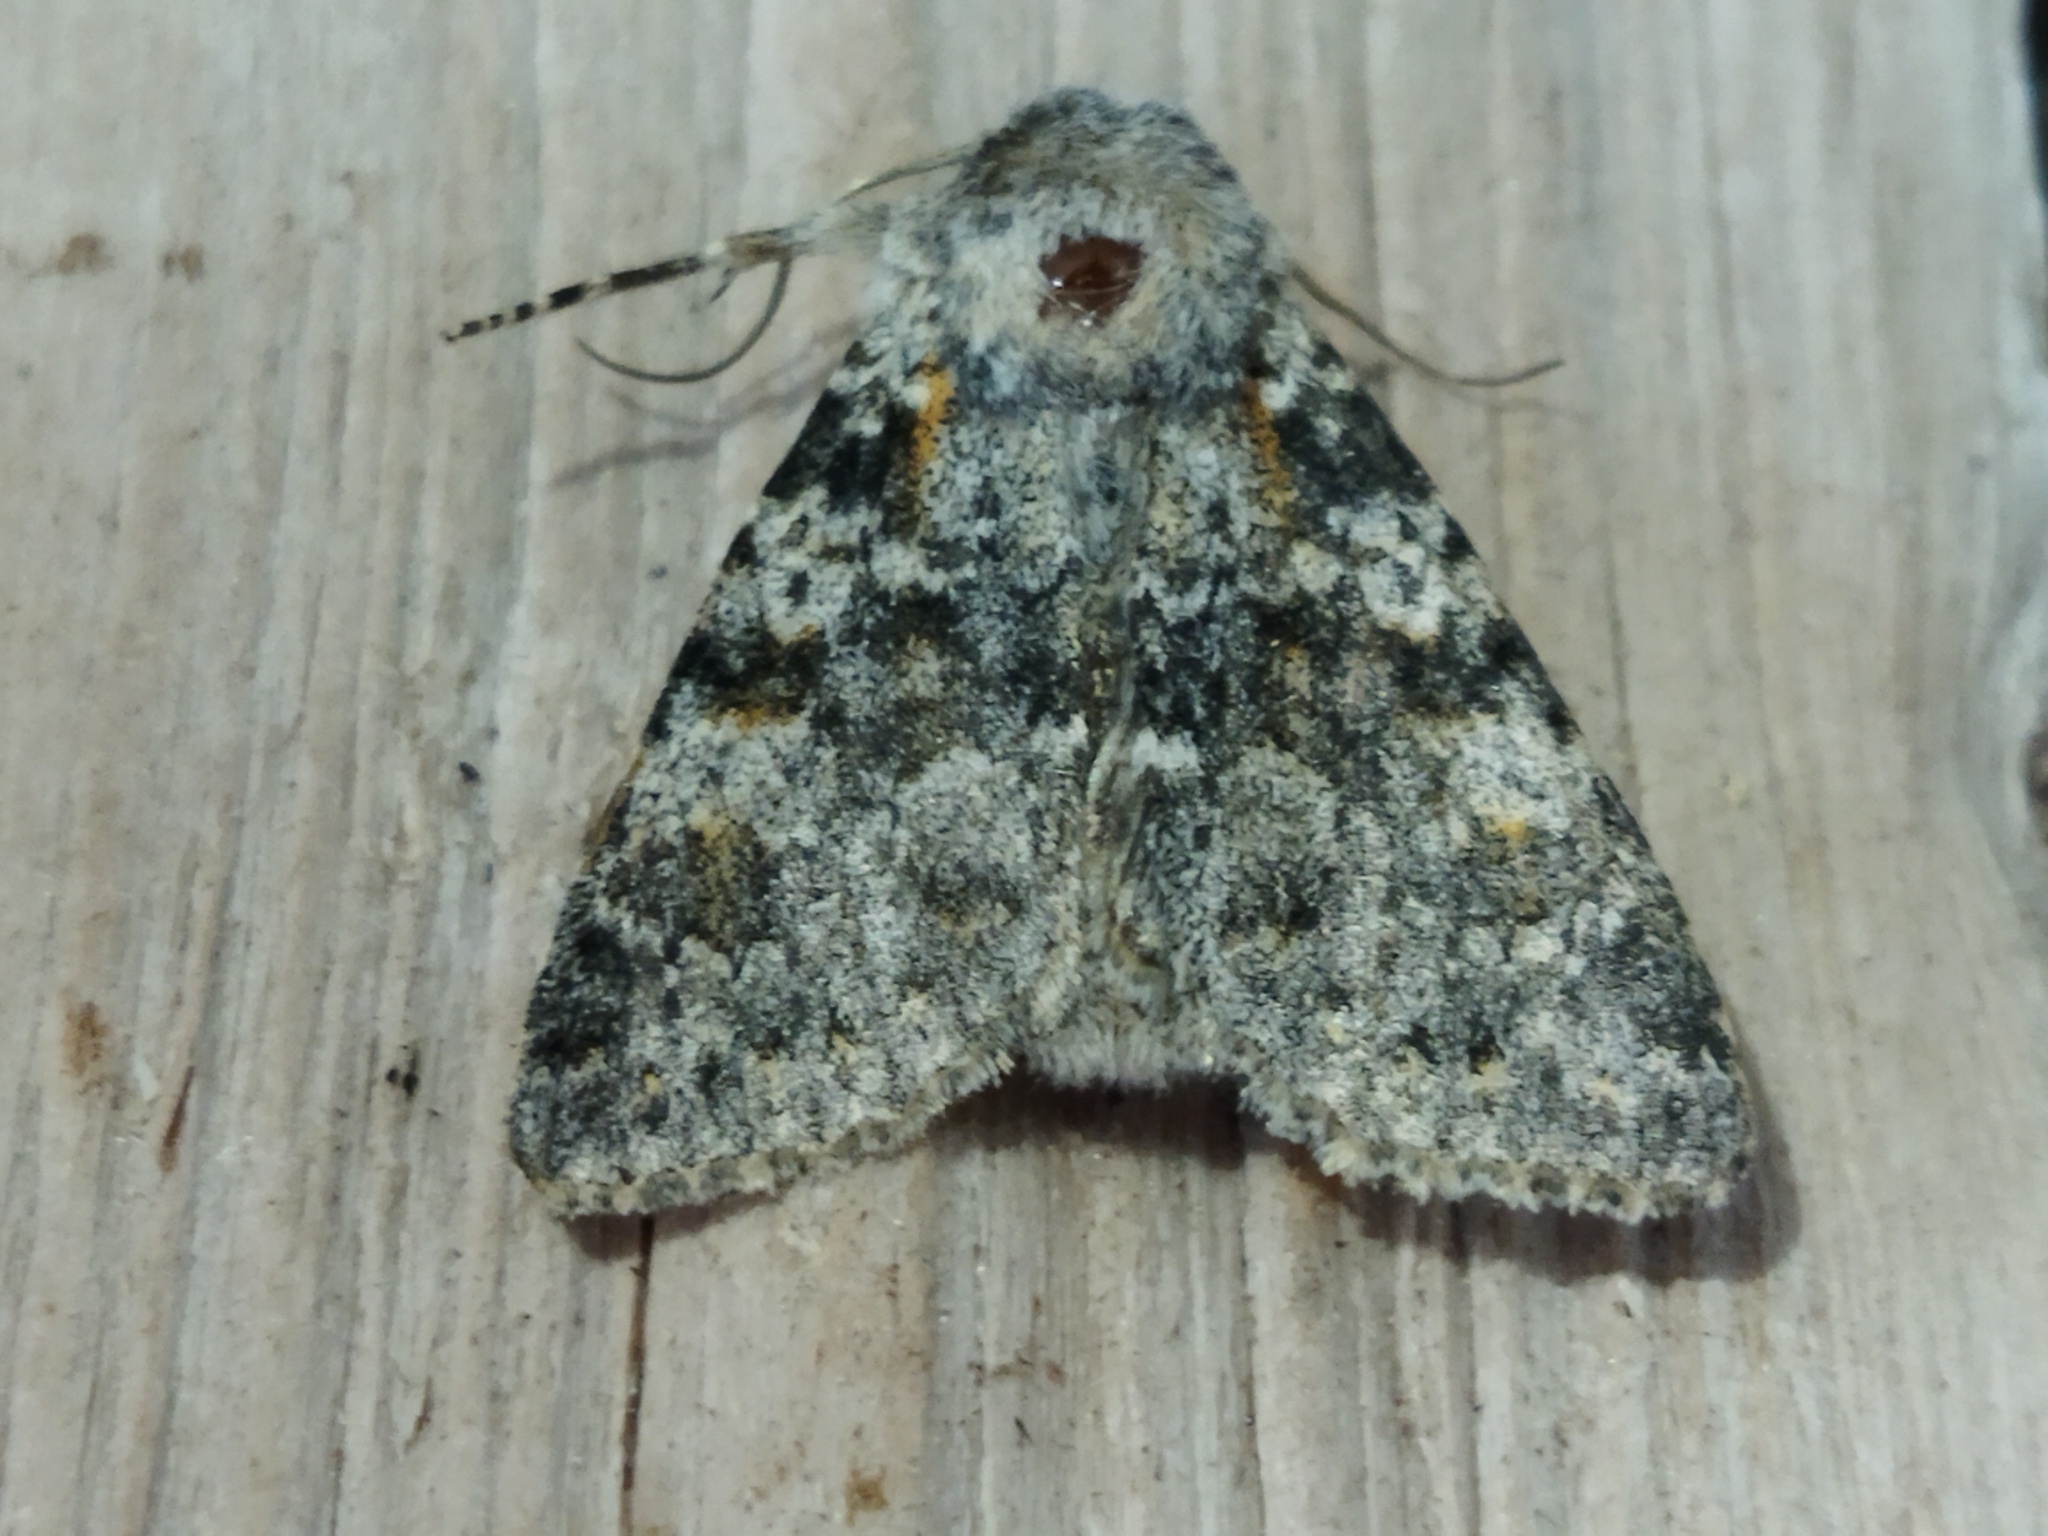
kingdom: Animalia
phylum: Arthropoda
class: Insecta
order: Lepidoptera
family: Noctuidae
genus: Polymixis
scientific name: Polymixis rufocincta
